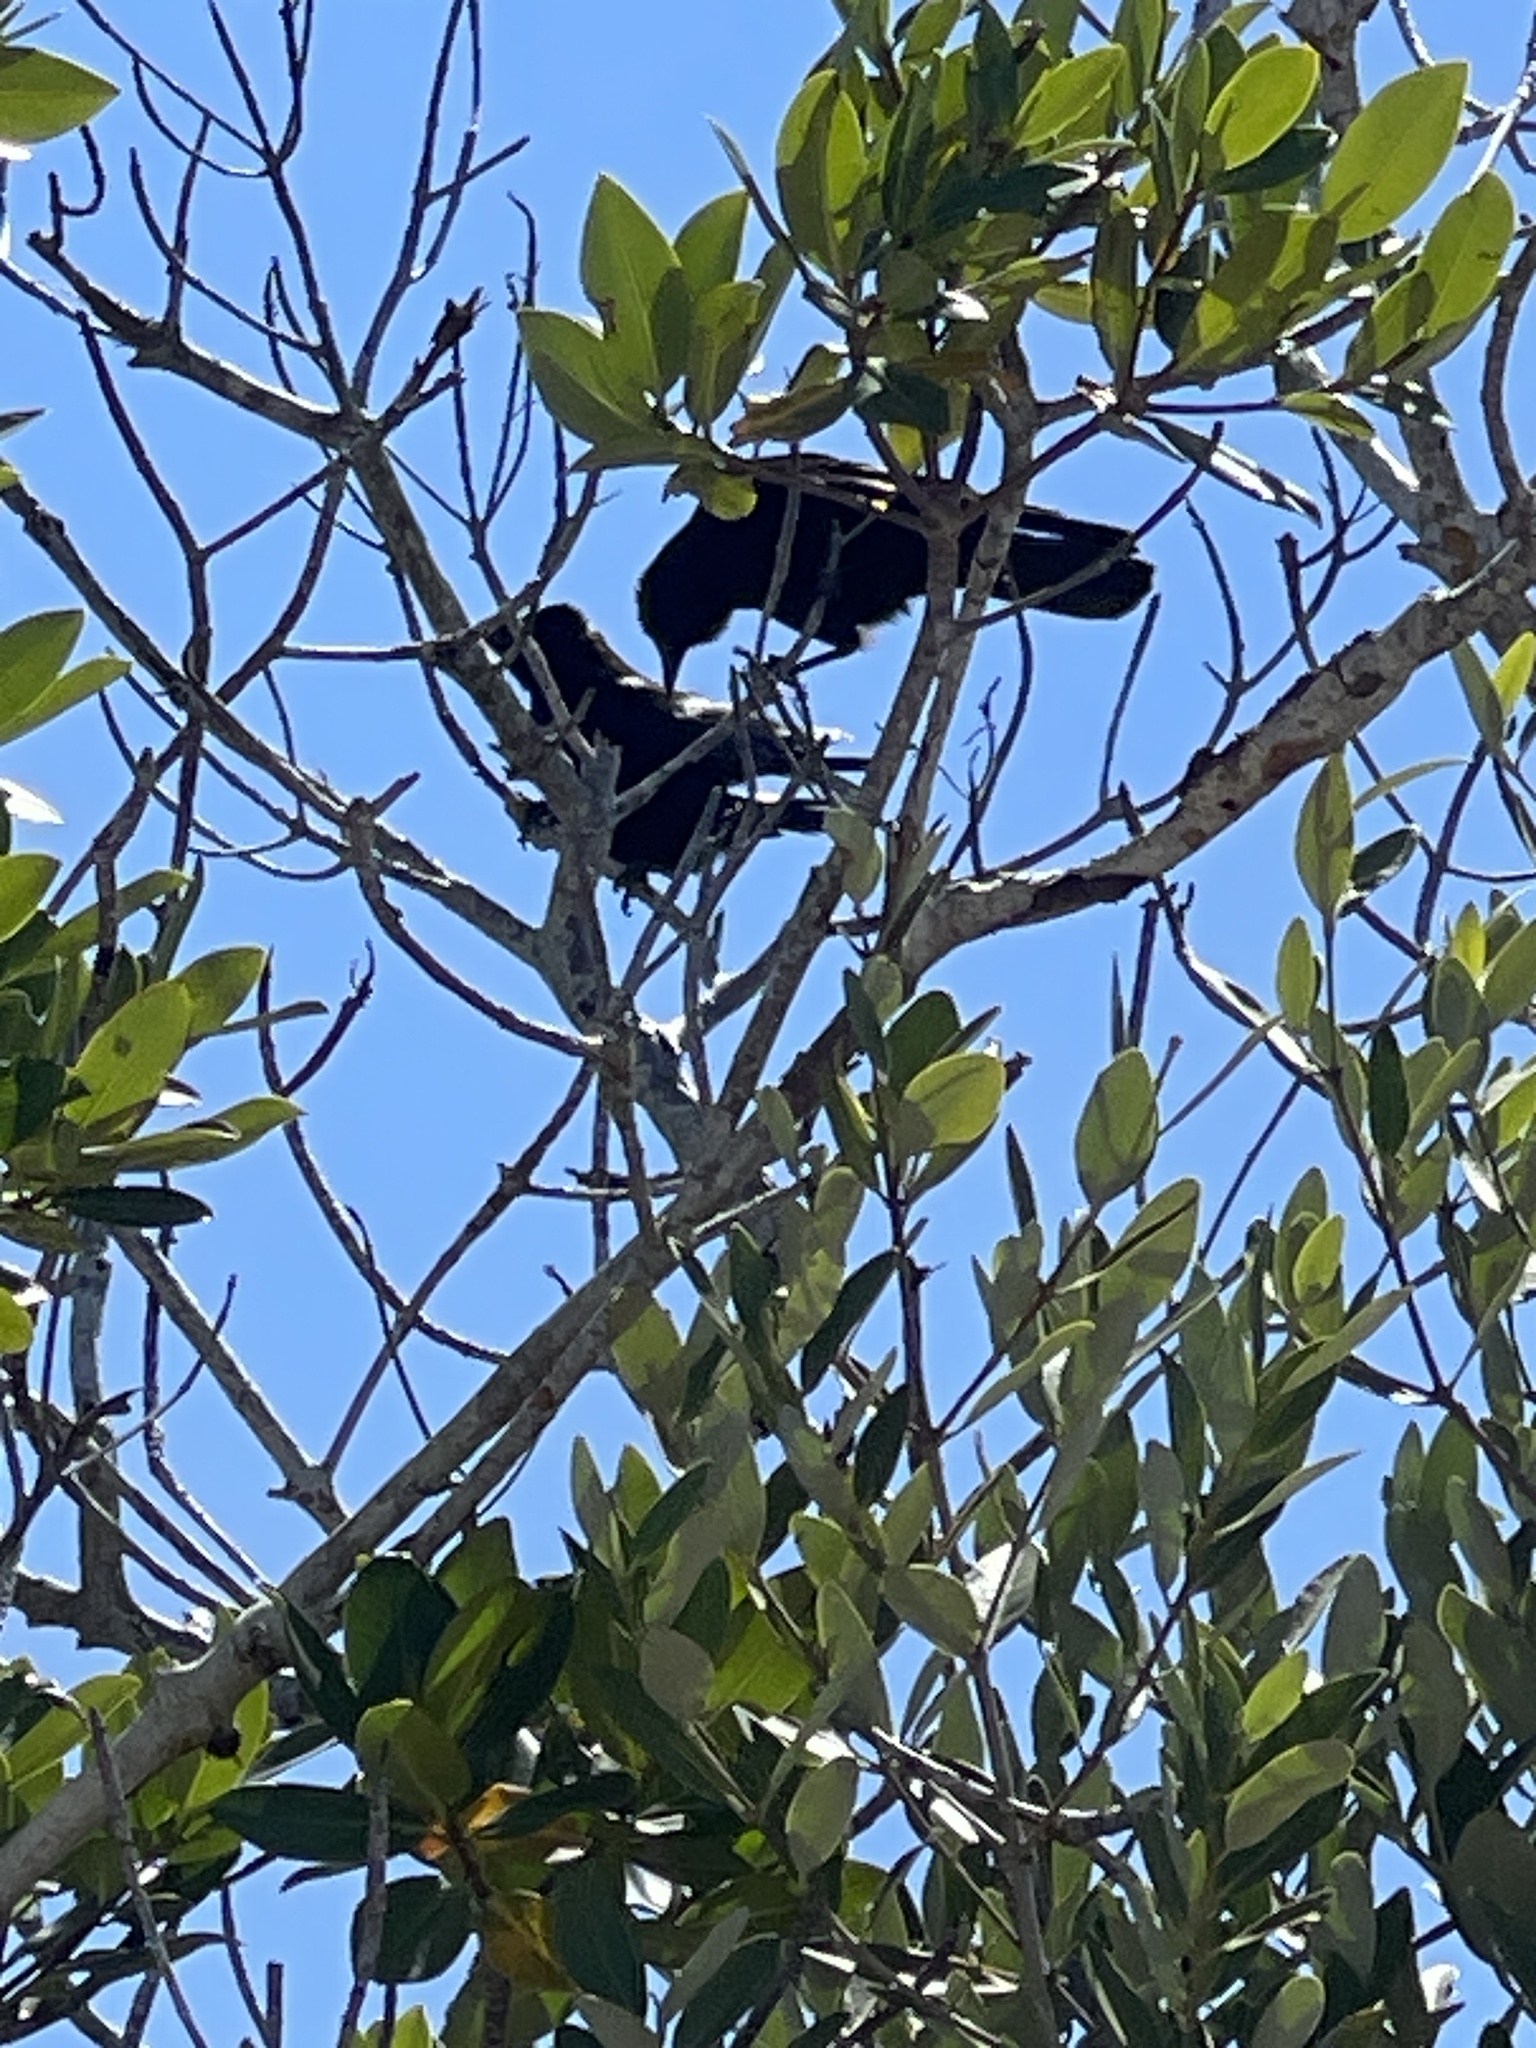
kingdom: Animalia
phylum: Chordata
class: Aves
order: Passeriformes
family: Corvidae
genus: Corvus
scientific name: Corvus ossifragus
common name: Fish crow
